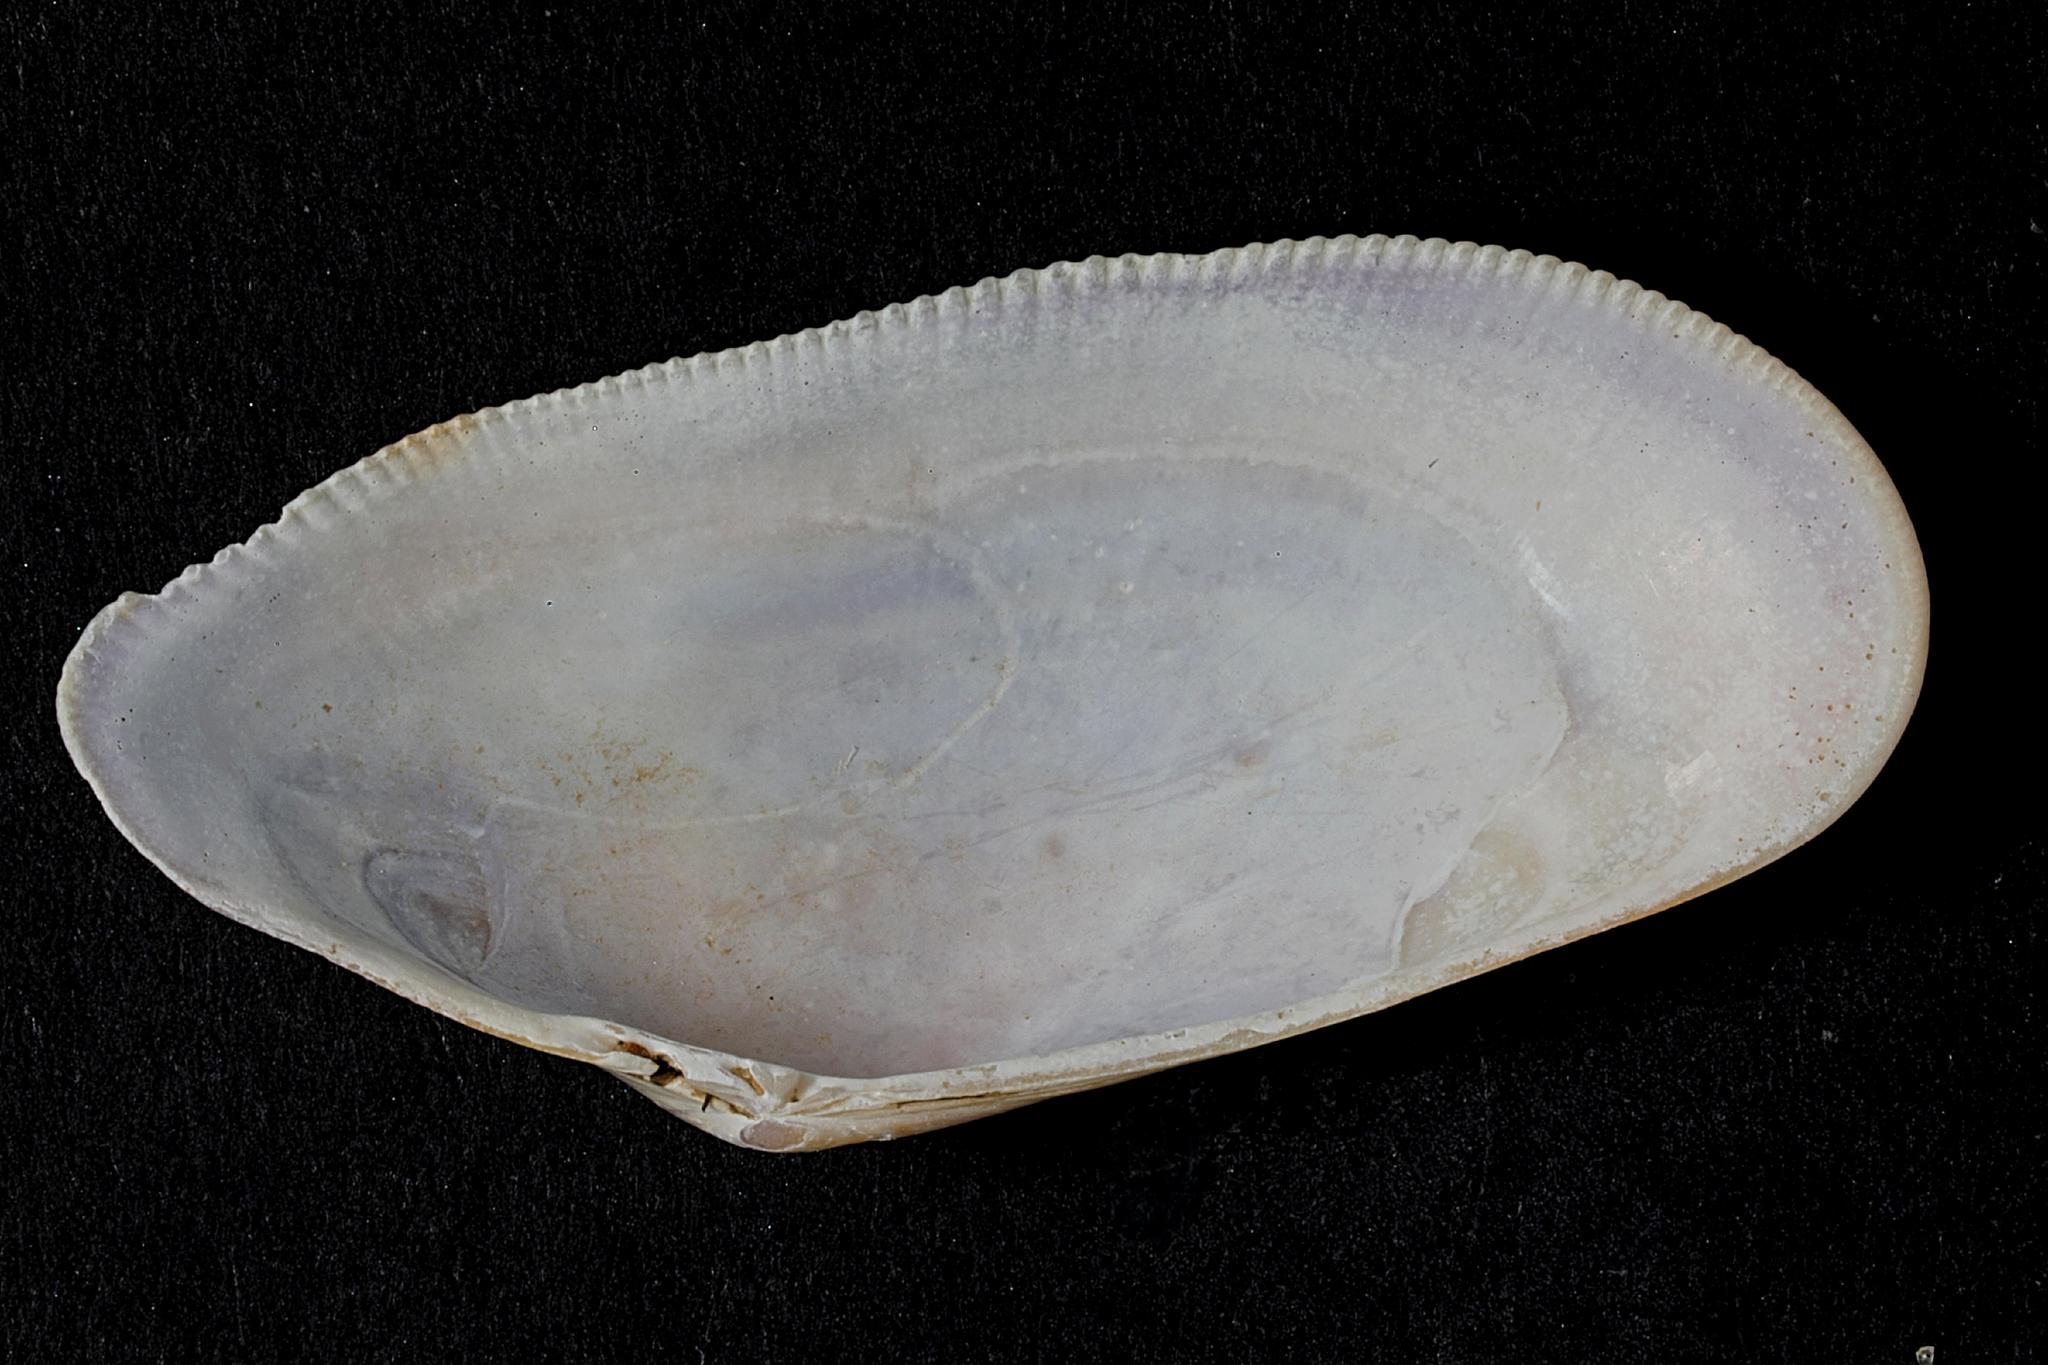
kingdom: Animalia
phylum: Mollusca
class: Bivalvia
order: Cardiida
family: Donacidae
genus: Donax
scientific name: Donax vittatus
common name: Banded wedge-shell
